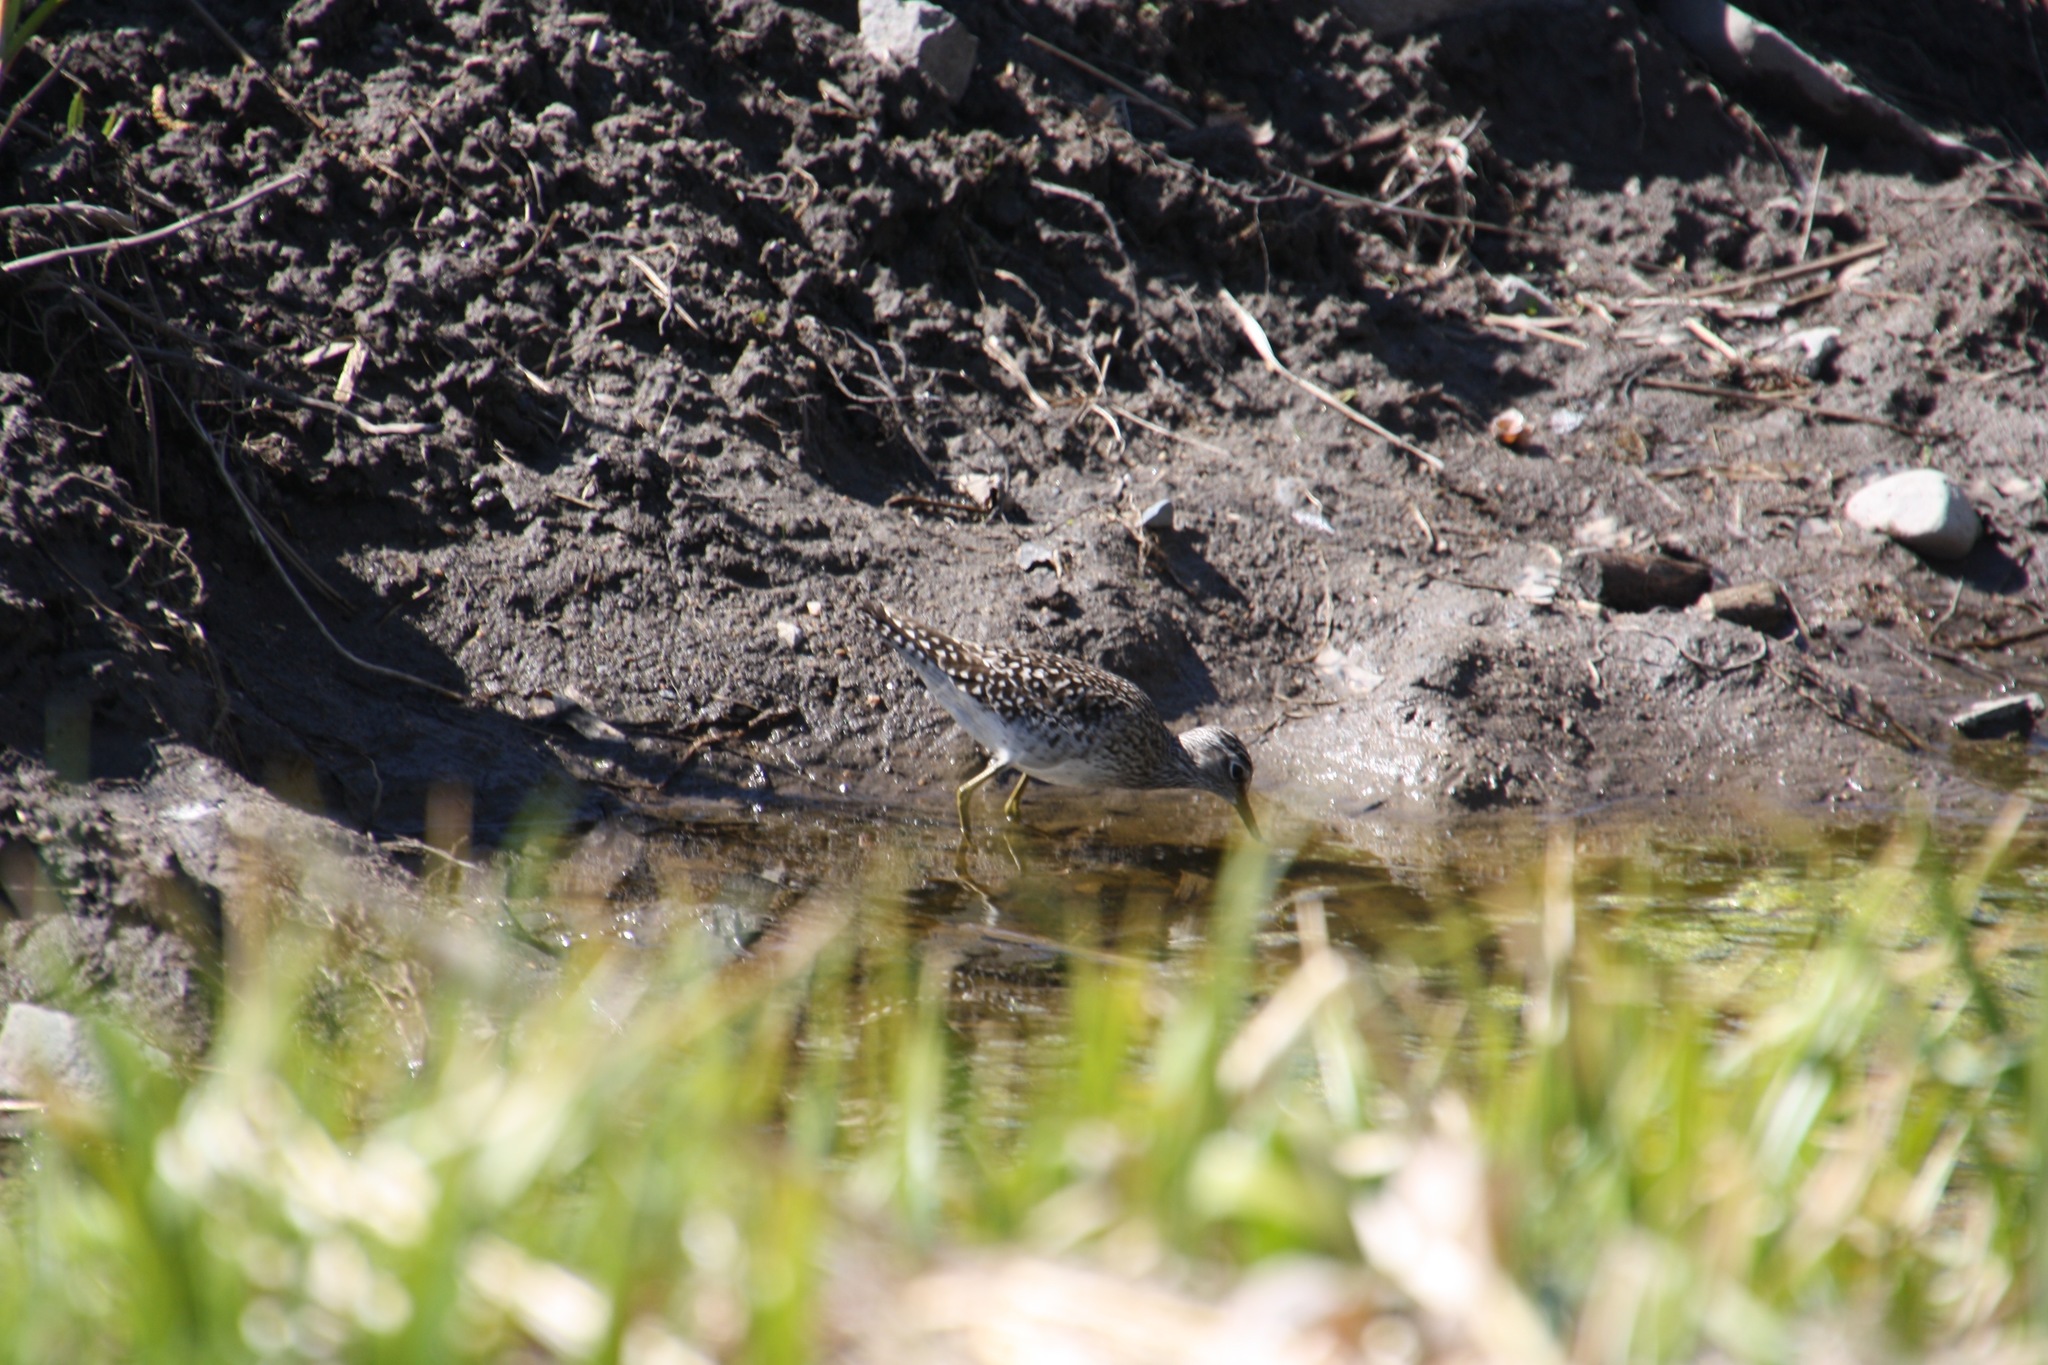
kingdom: Animalia
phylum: Chordata
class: Aves
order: Charadriiformes
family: Scolopacidae
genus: Tringa
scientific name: Tringa glareola
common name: Wood sandpiper
